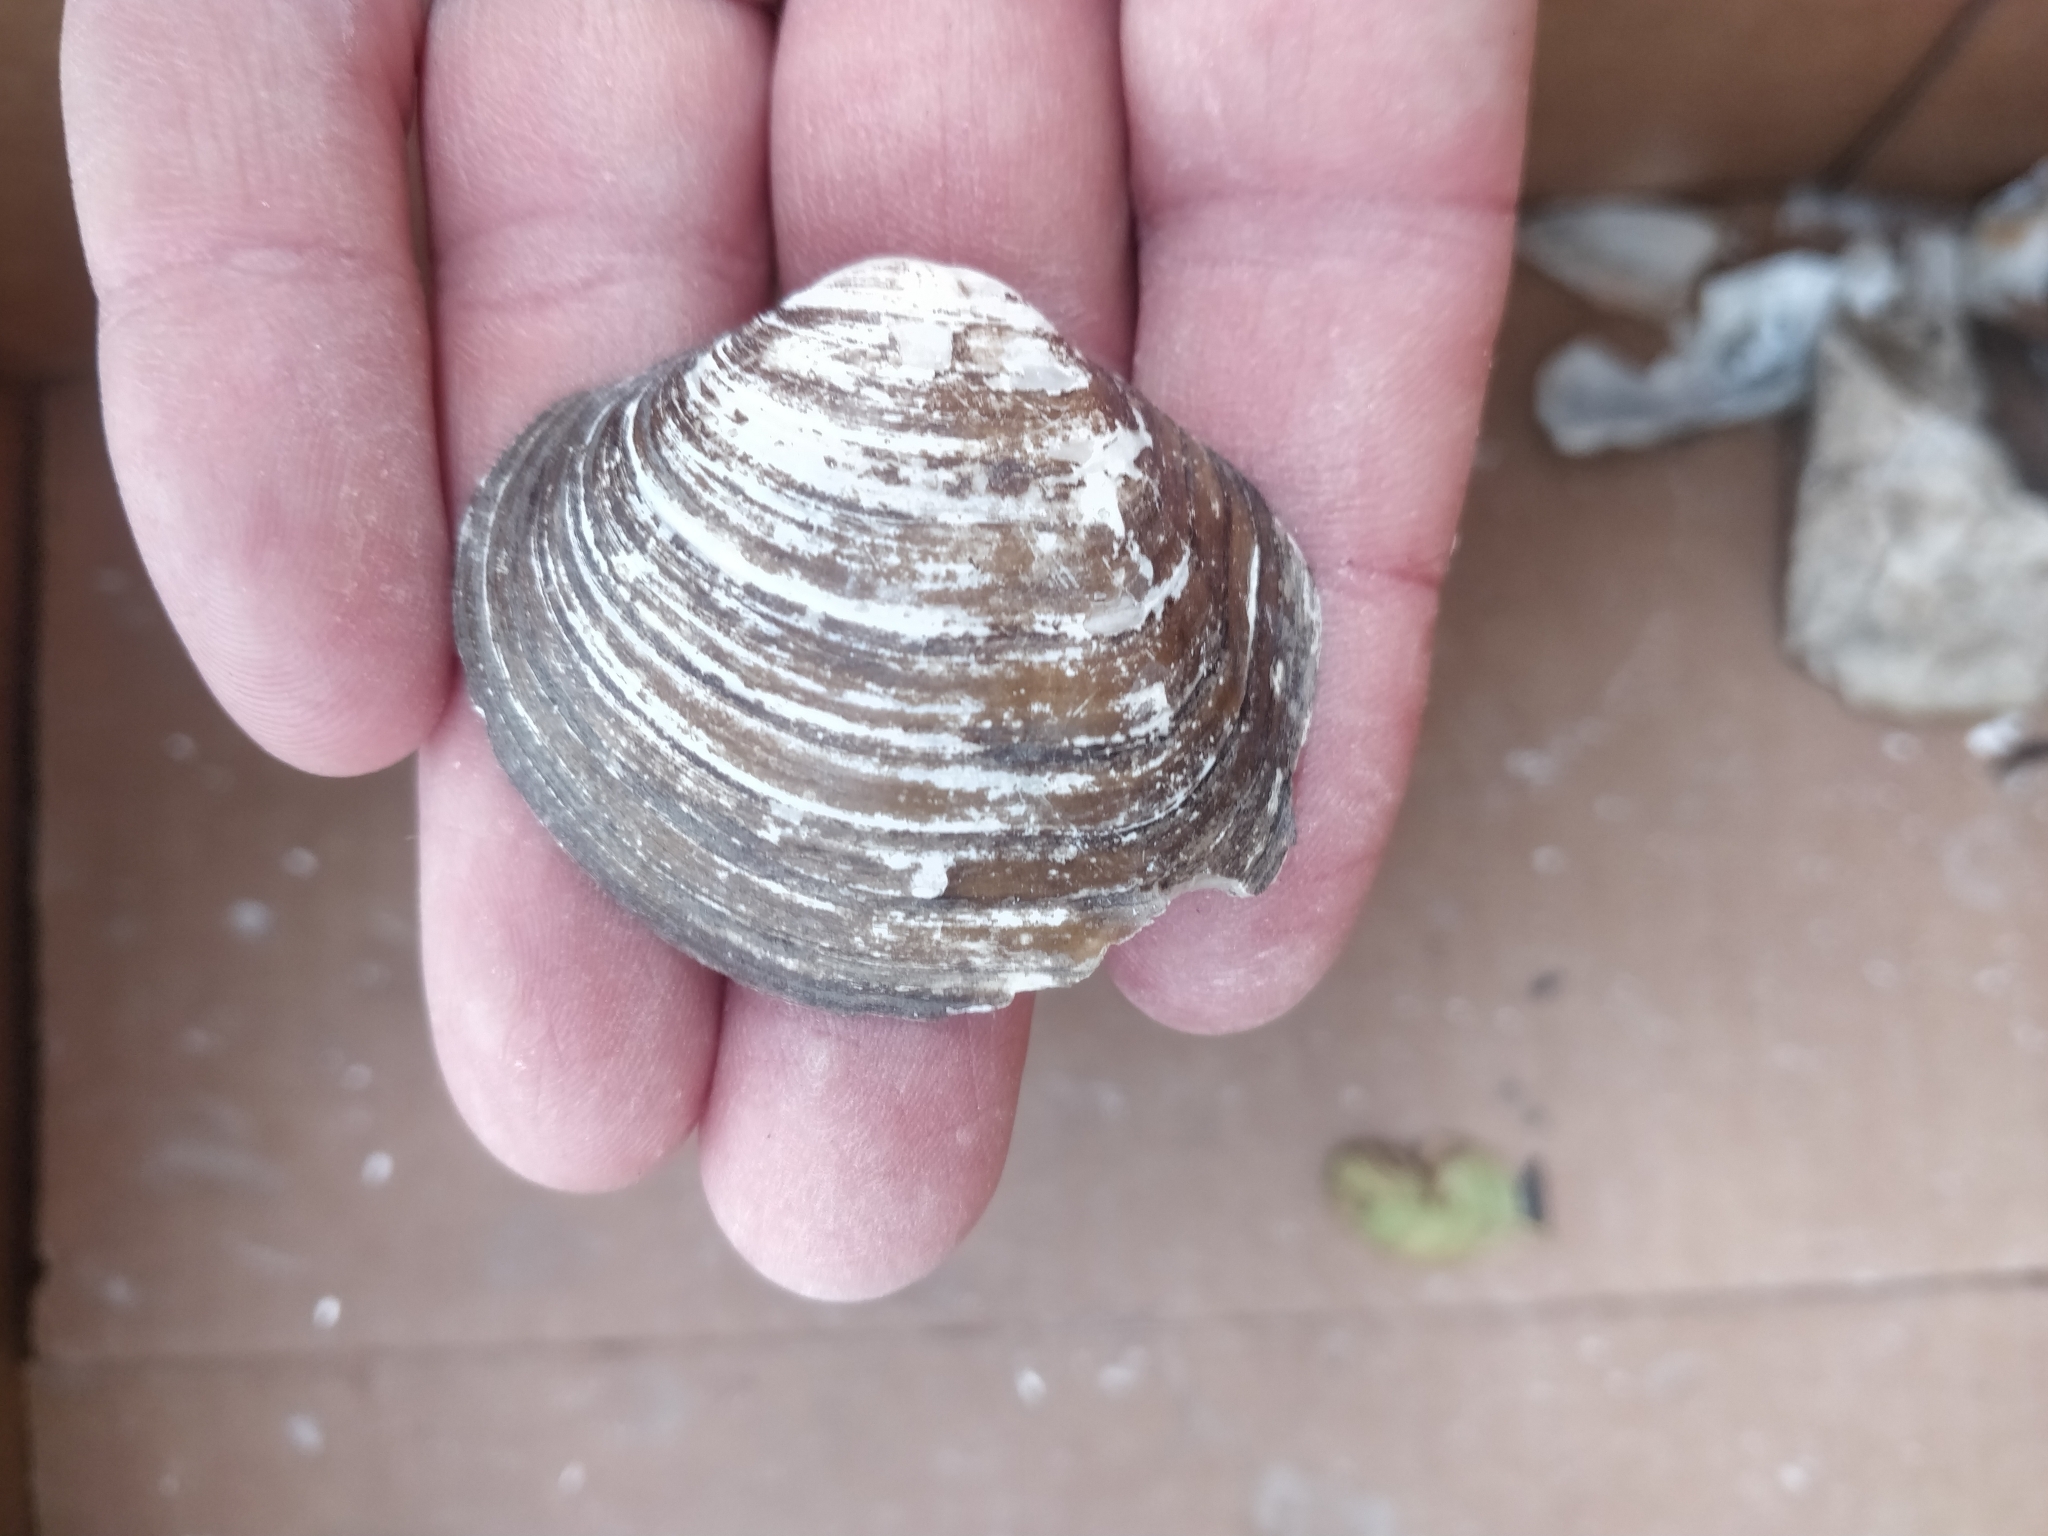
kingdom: Animalia
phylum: Mollusca
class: Bivalvia
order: Unionida
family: Unionidae
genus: Cyclonaias
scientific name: Cyclonaias pustulosa
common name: Pimpleback
